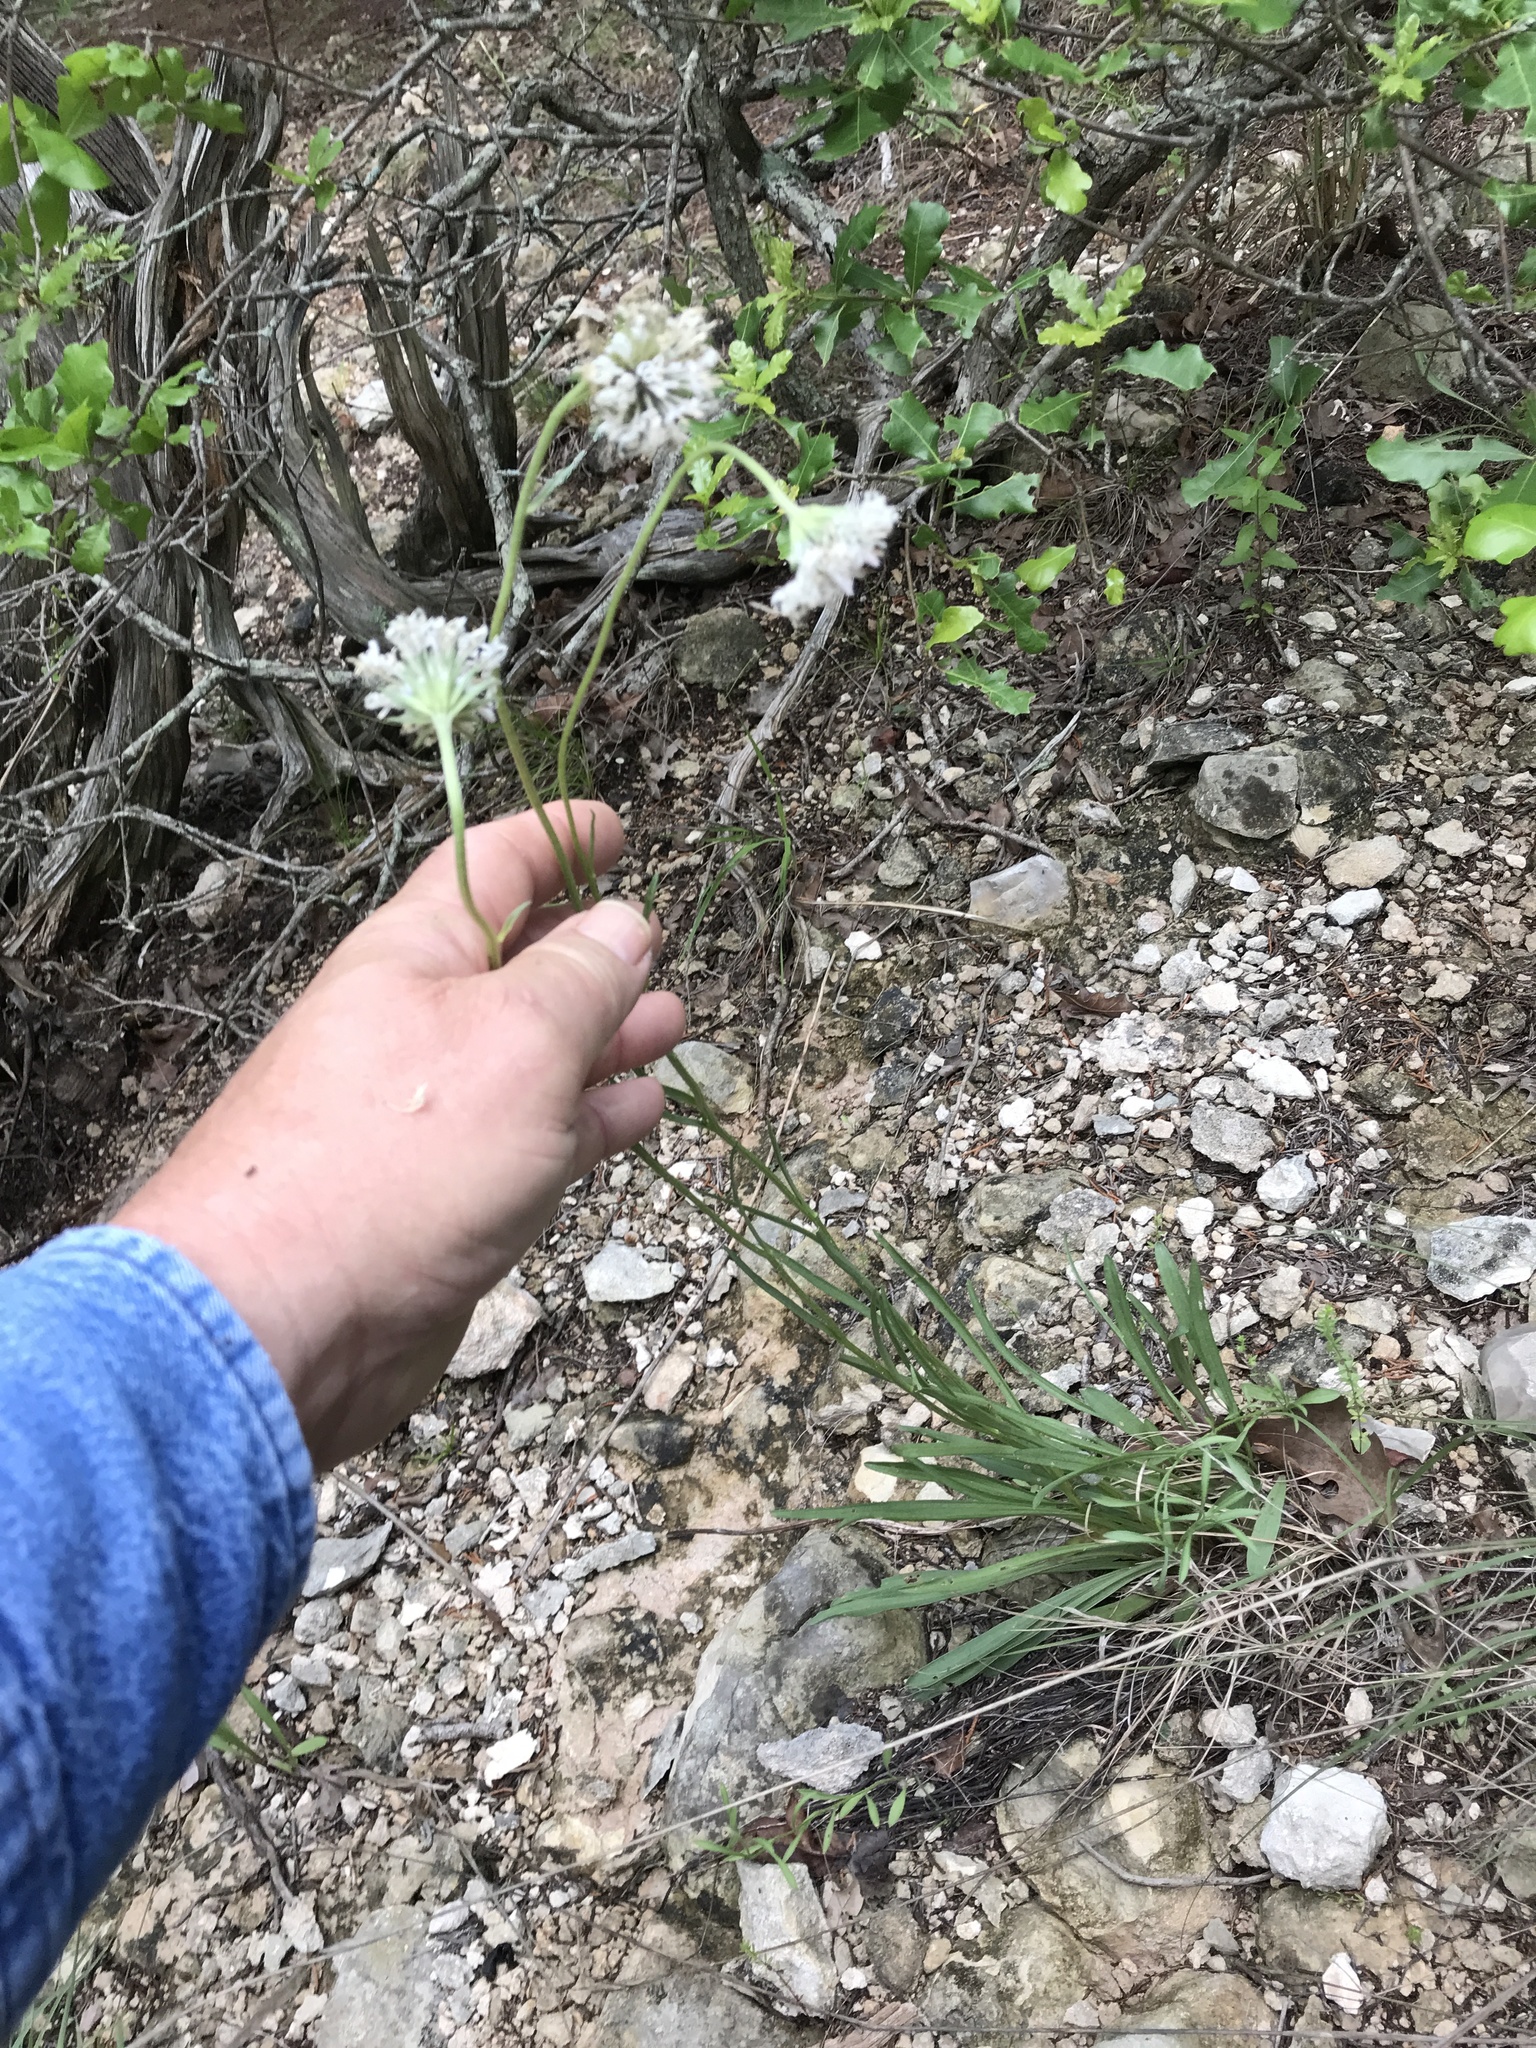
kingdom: Plantae
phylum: Tracheophyta
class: Magnoliopsida
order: Asterales
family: Asteraceae
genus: Marshallia
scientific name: Marshallia caespitosa
